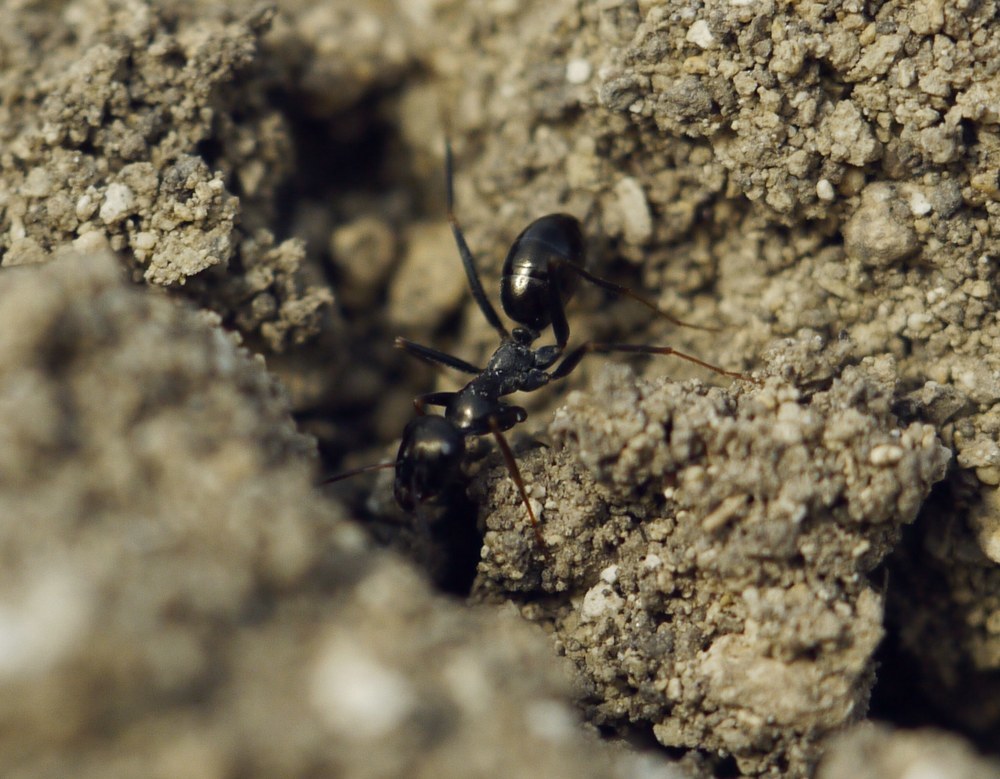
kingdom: Animalia
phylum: Arthropoda
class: Insecta
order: Hymenoptera
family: Formicidae
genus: Cataglyphis
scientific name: Cataglyphis aenescens
